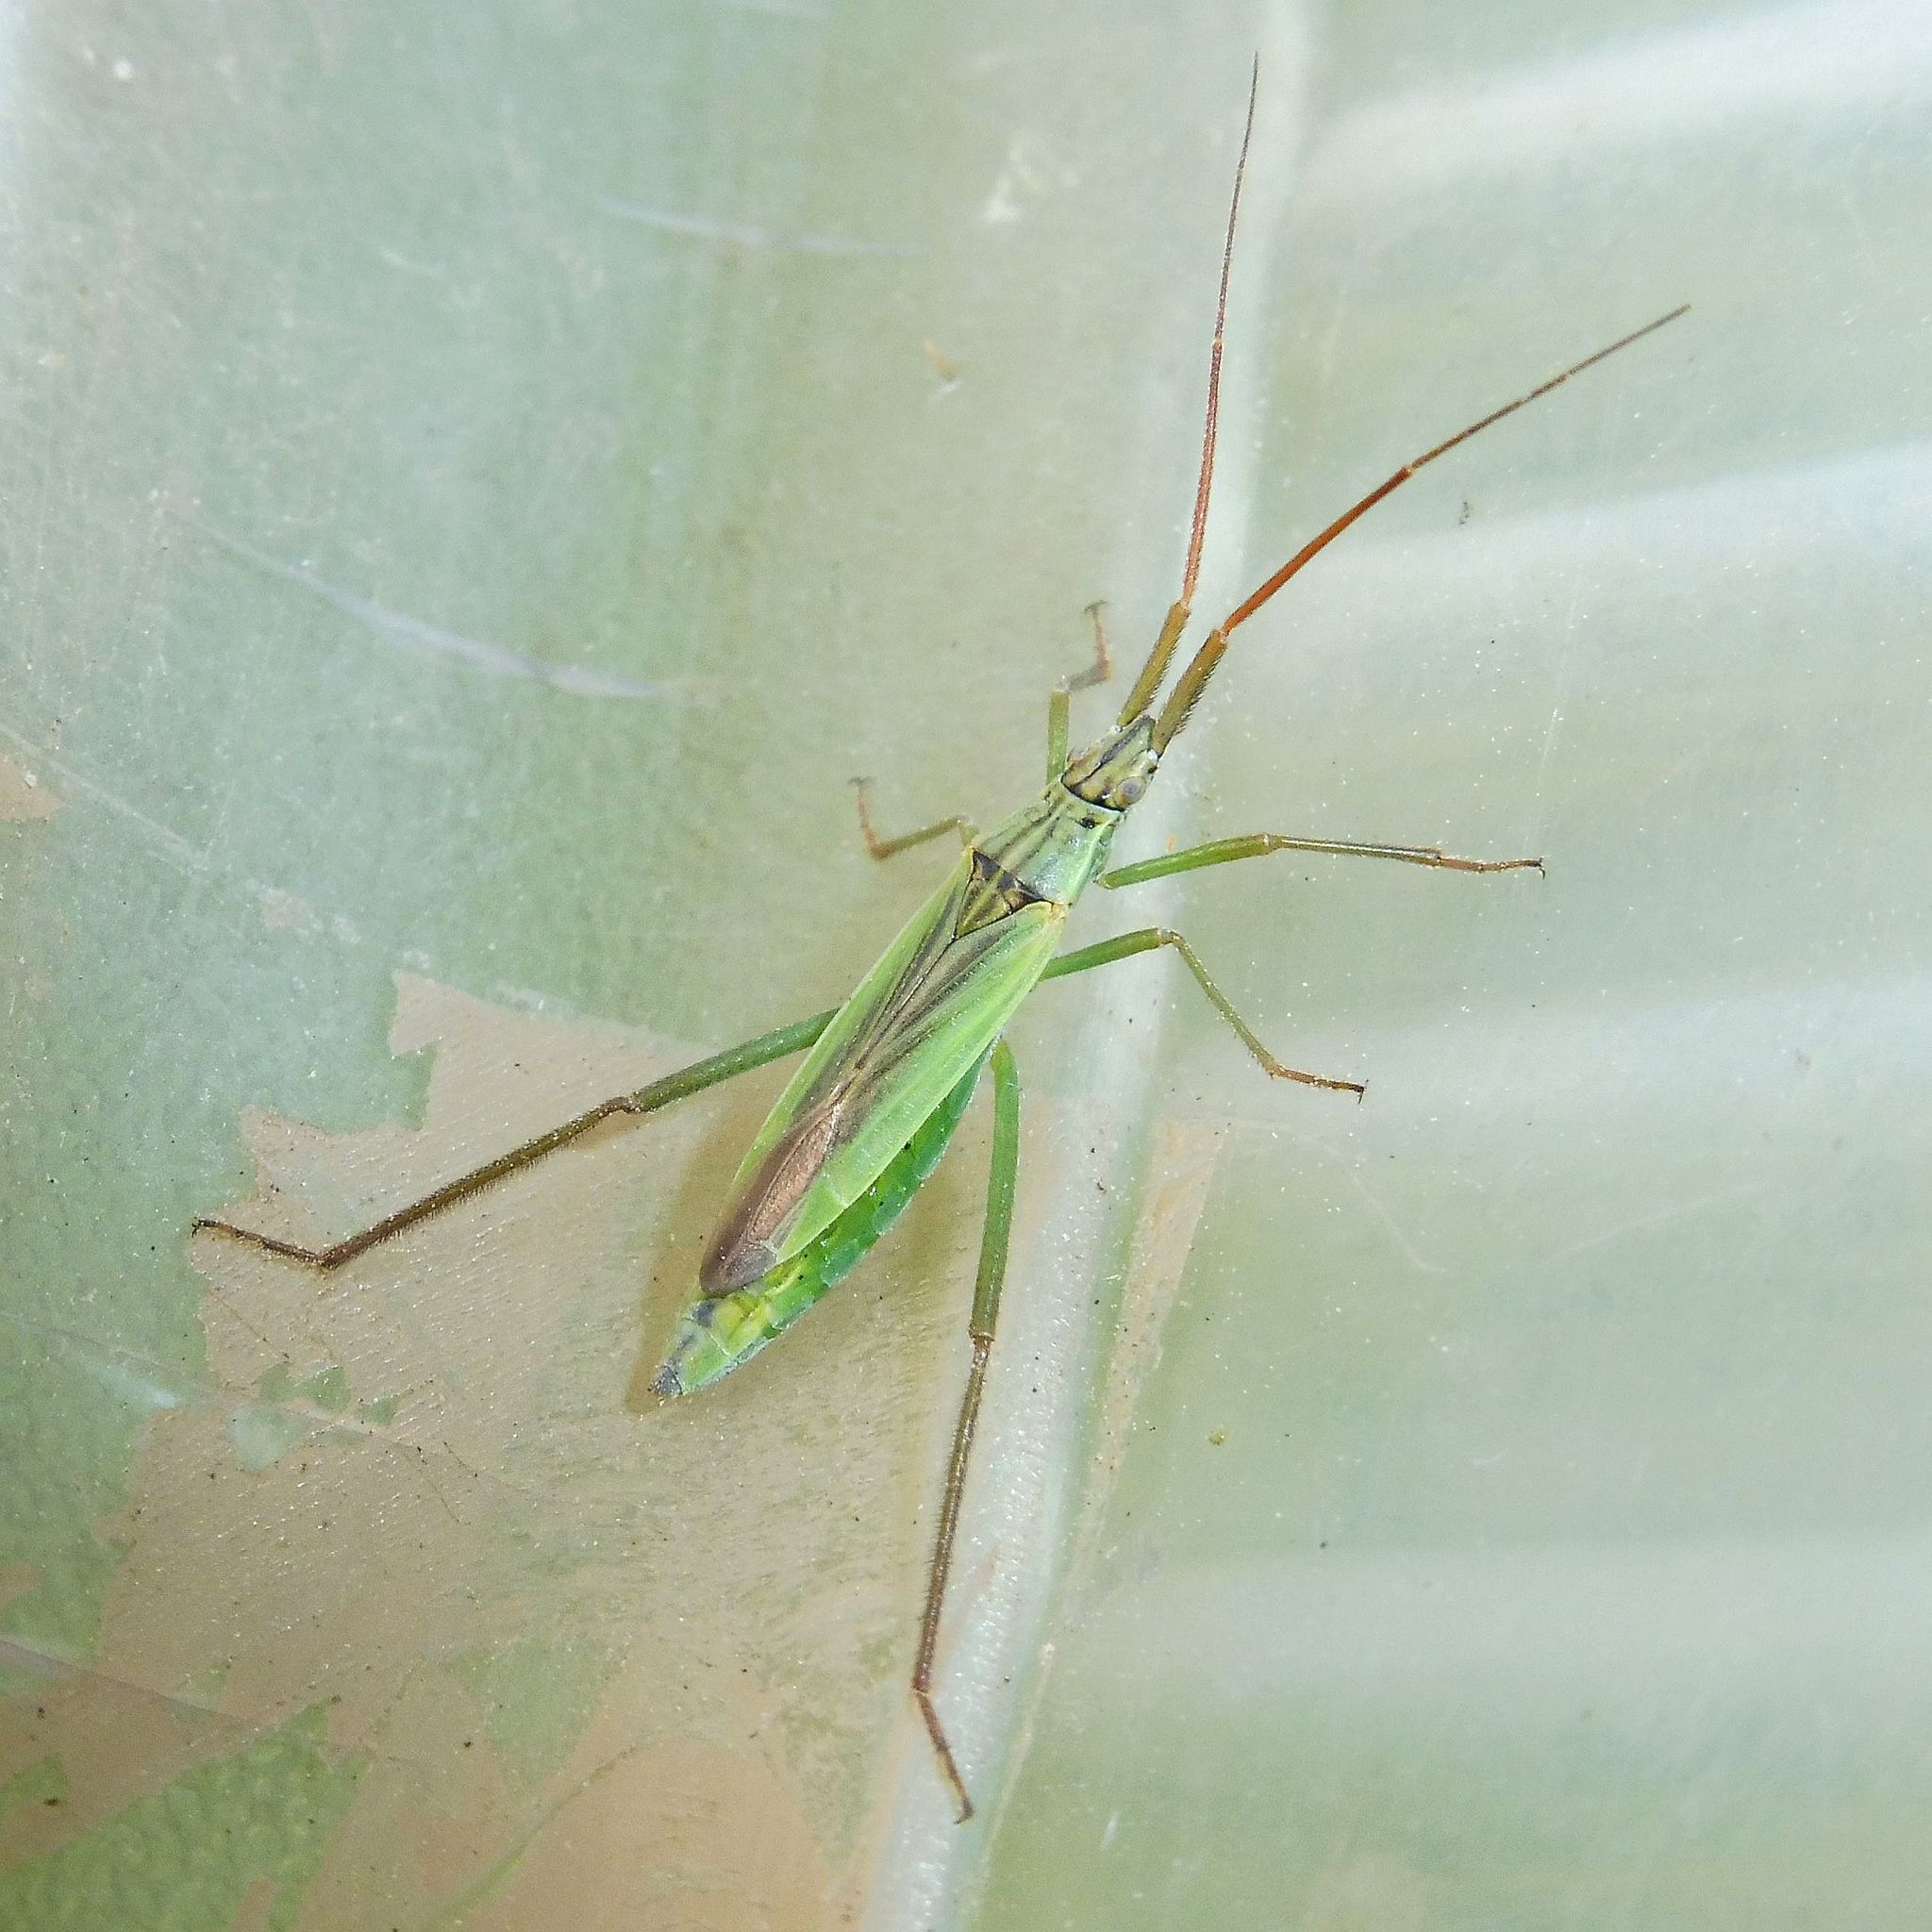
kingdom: Animalia
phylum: Arthropoda
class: Insecta
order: Hemiptera
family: Miridae
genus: Notostira
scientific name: Notostira elongata
